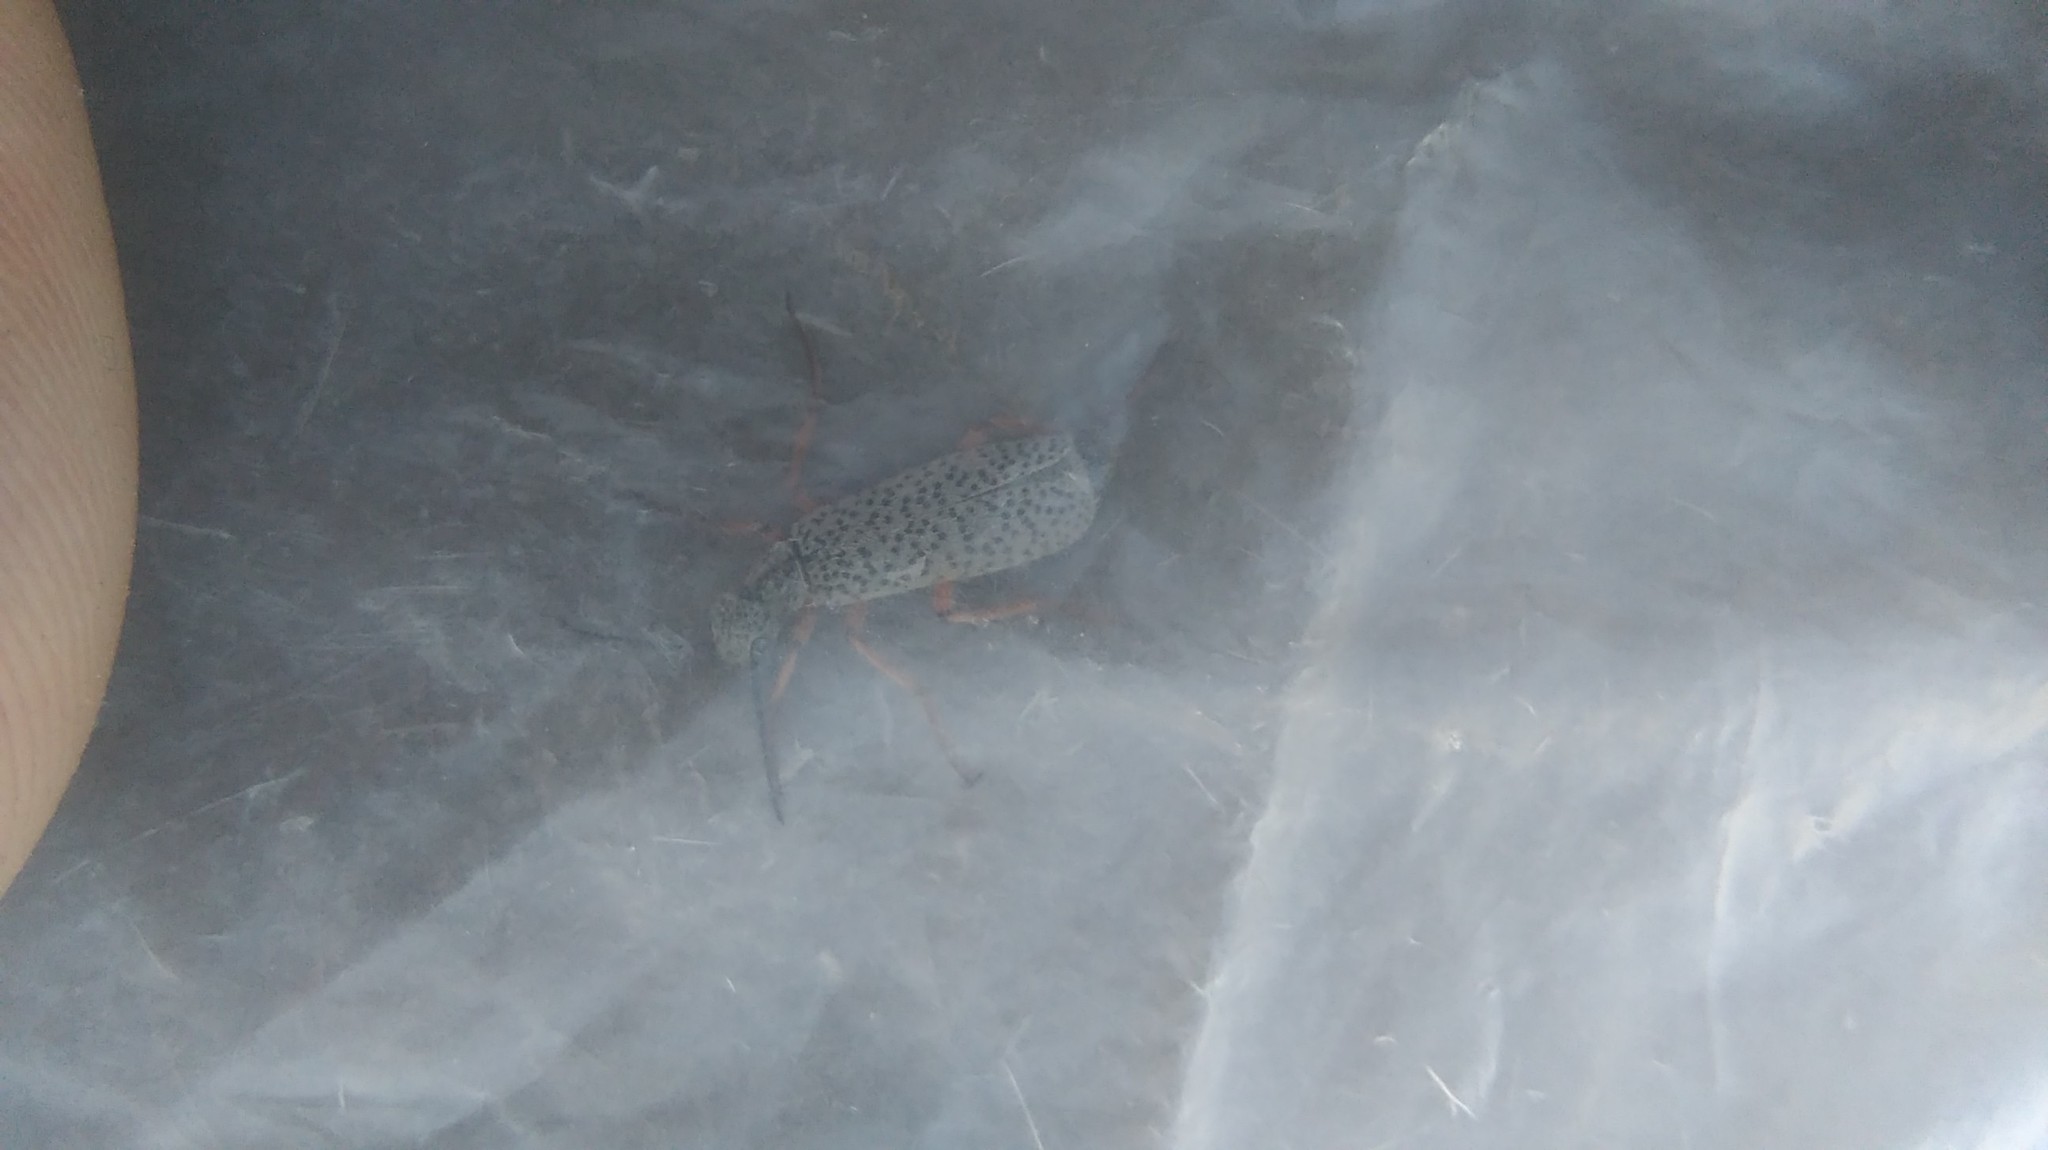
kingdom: Animalia
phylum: Arthropoda
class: Insecta
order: Coleoptera
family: Meloidae
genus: Epicauta
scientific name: Epicauta
